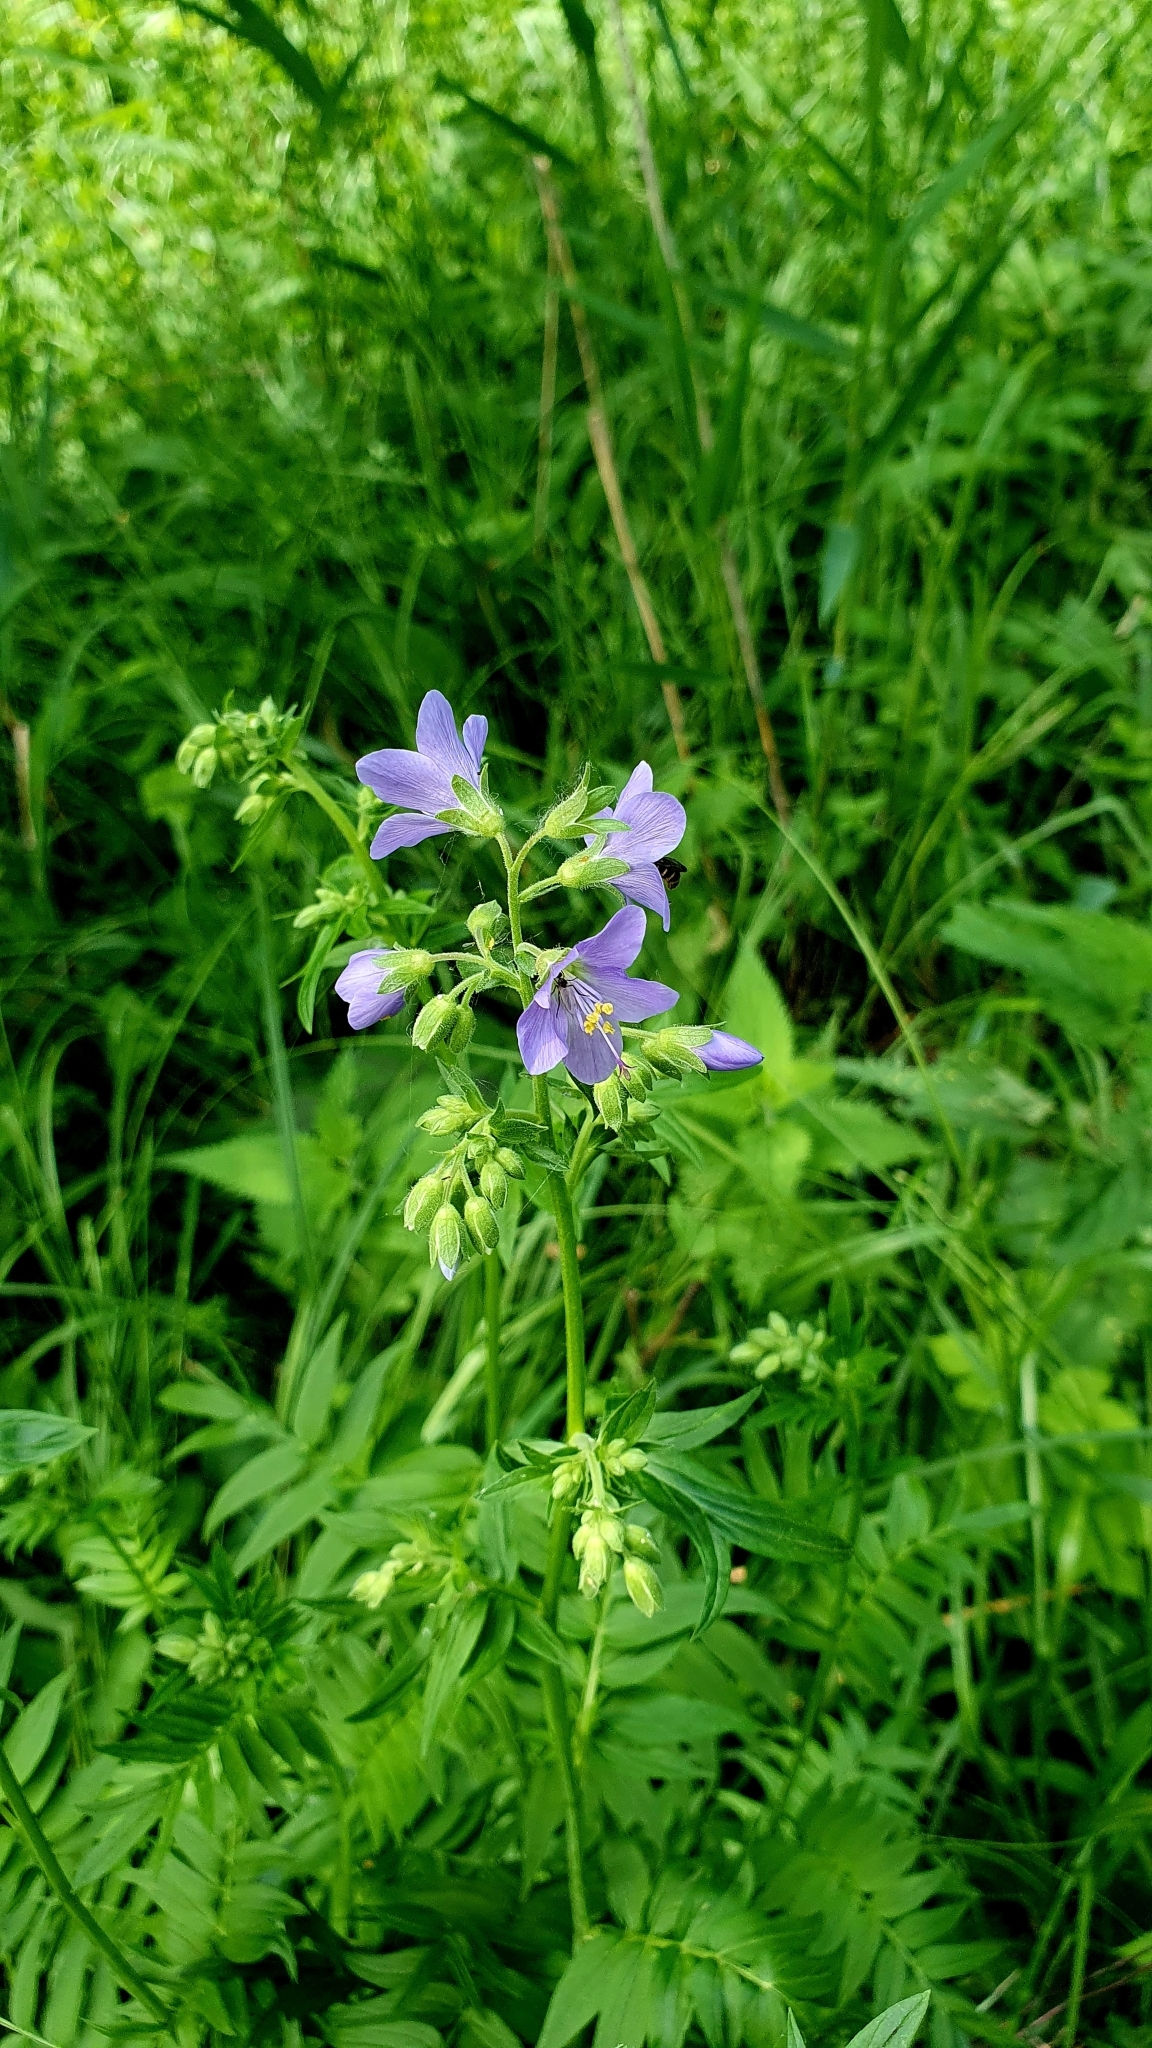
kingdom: Plantae
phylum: Tracheophyta
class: Magnoliopsida
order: Ericales
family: Polemoniaceae
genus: Polemonium
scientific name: Polemonium caeruleum
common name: Jacob's-ladder
